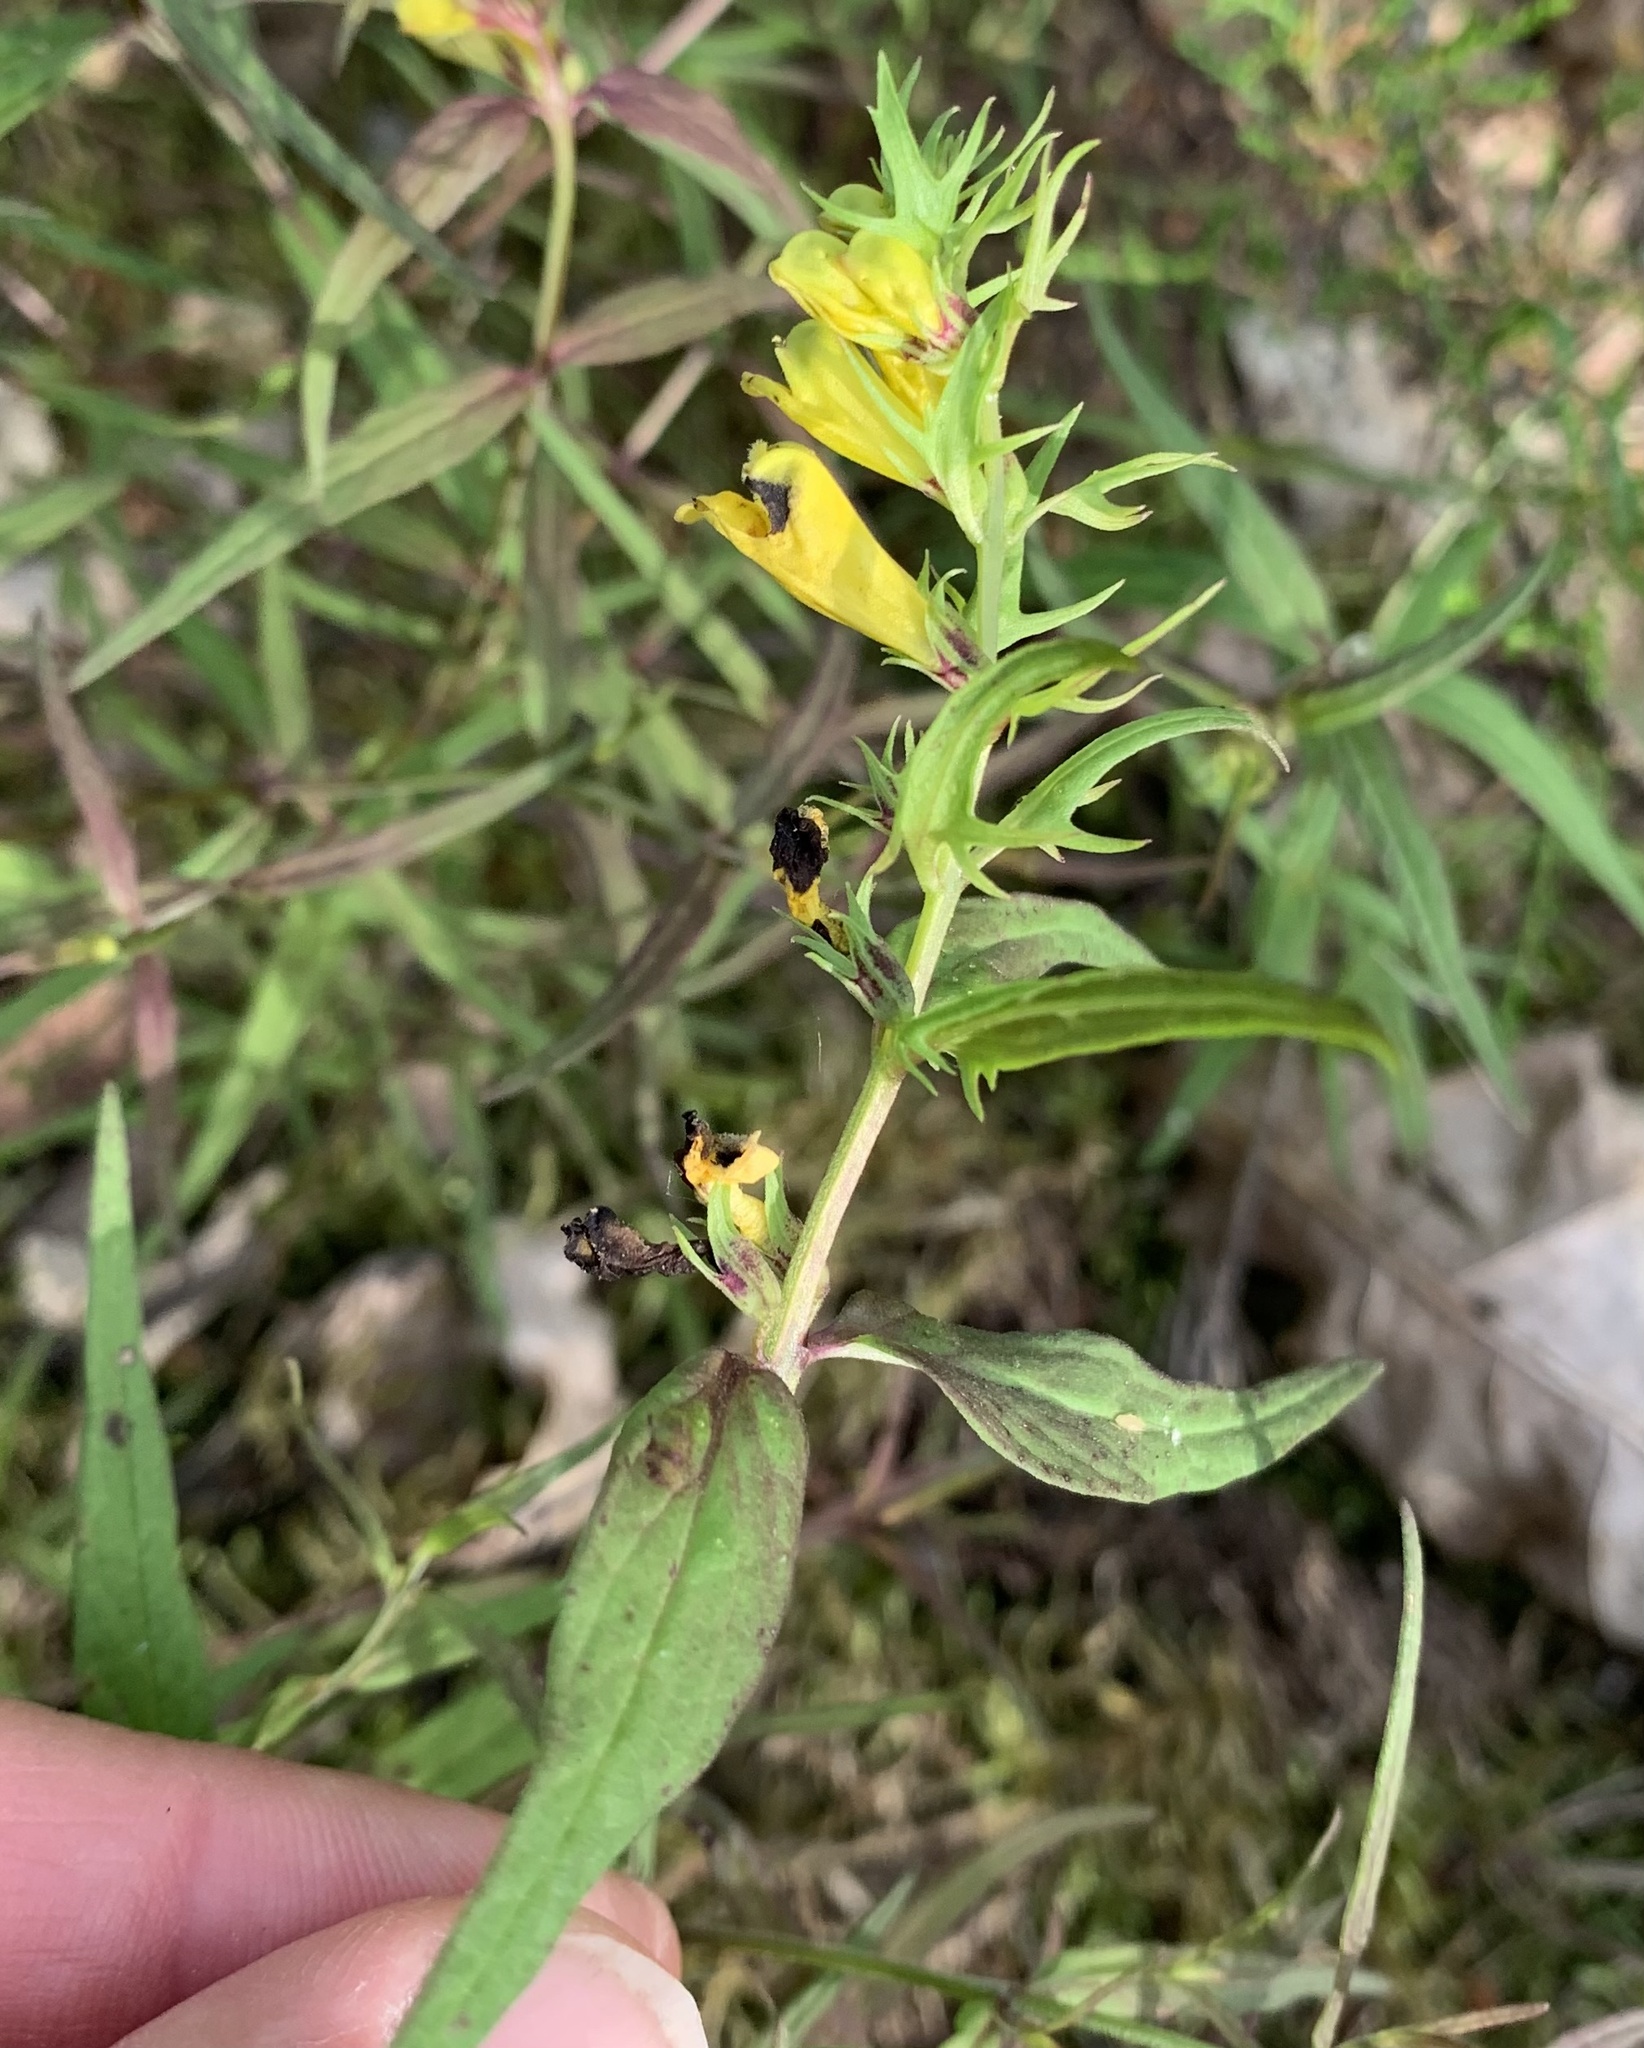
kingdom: Plantae
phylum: Tracheophyta
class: Magnoliopsida
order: Lamiales
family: Orobanchaceae
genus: Melampyrum
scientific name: Melampyrum pratense
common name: Common cow-wheat
